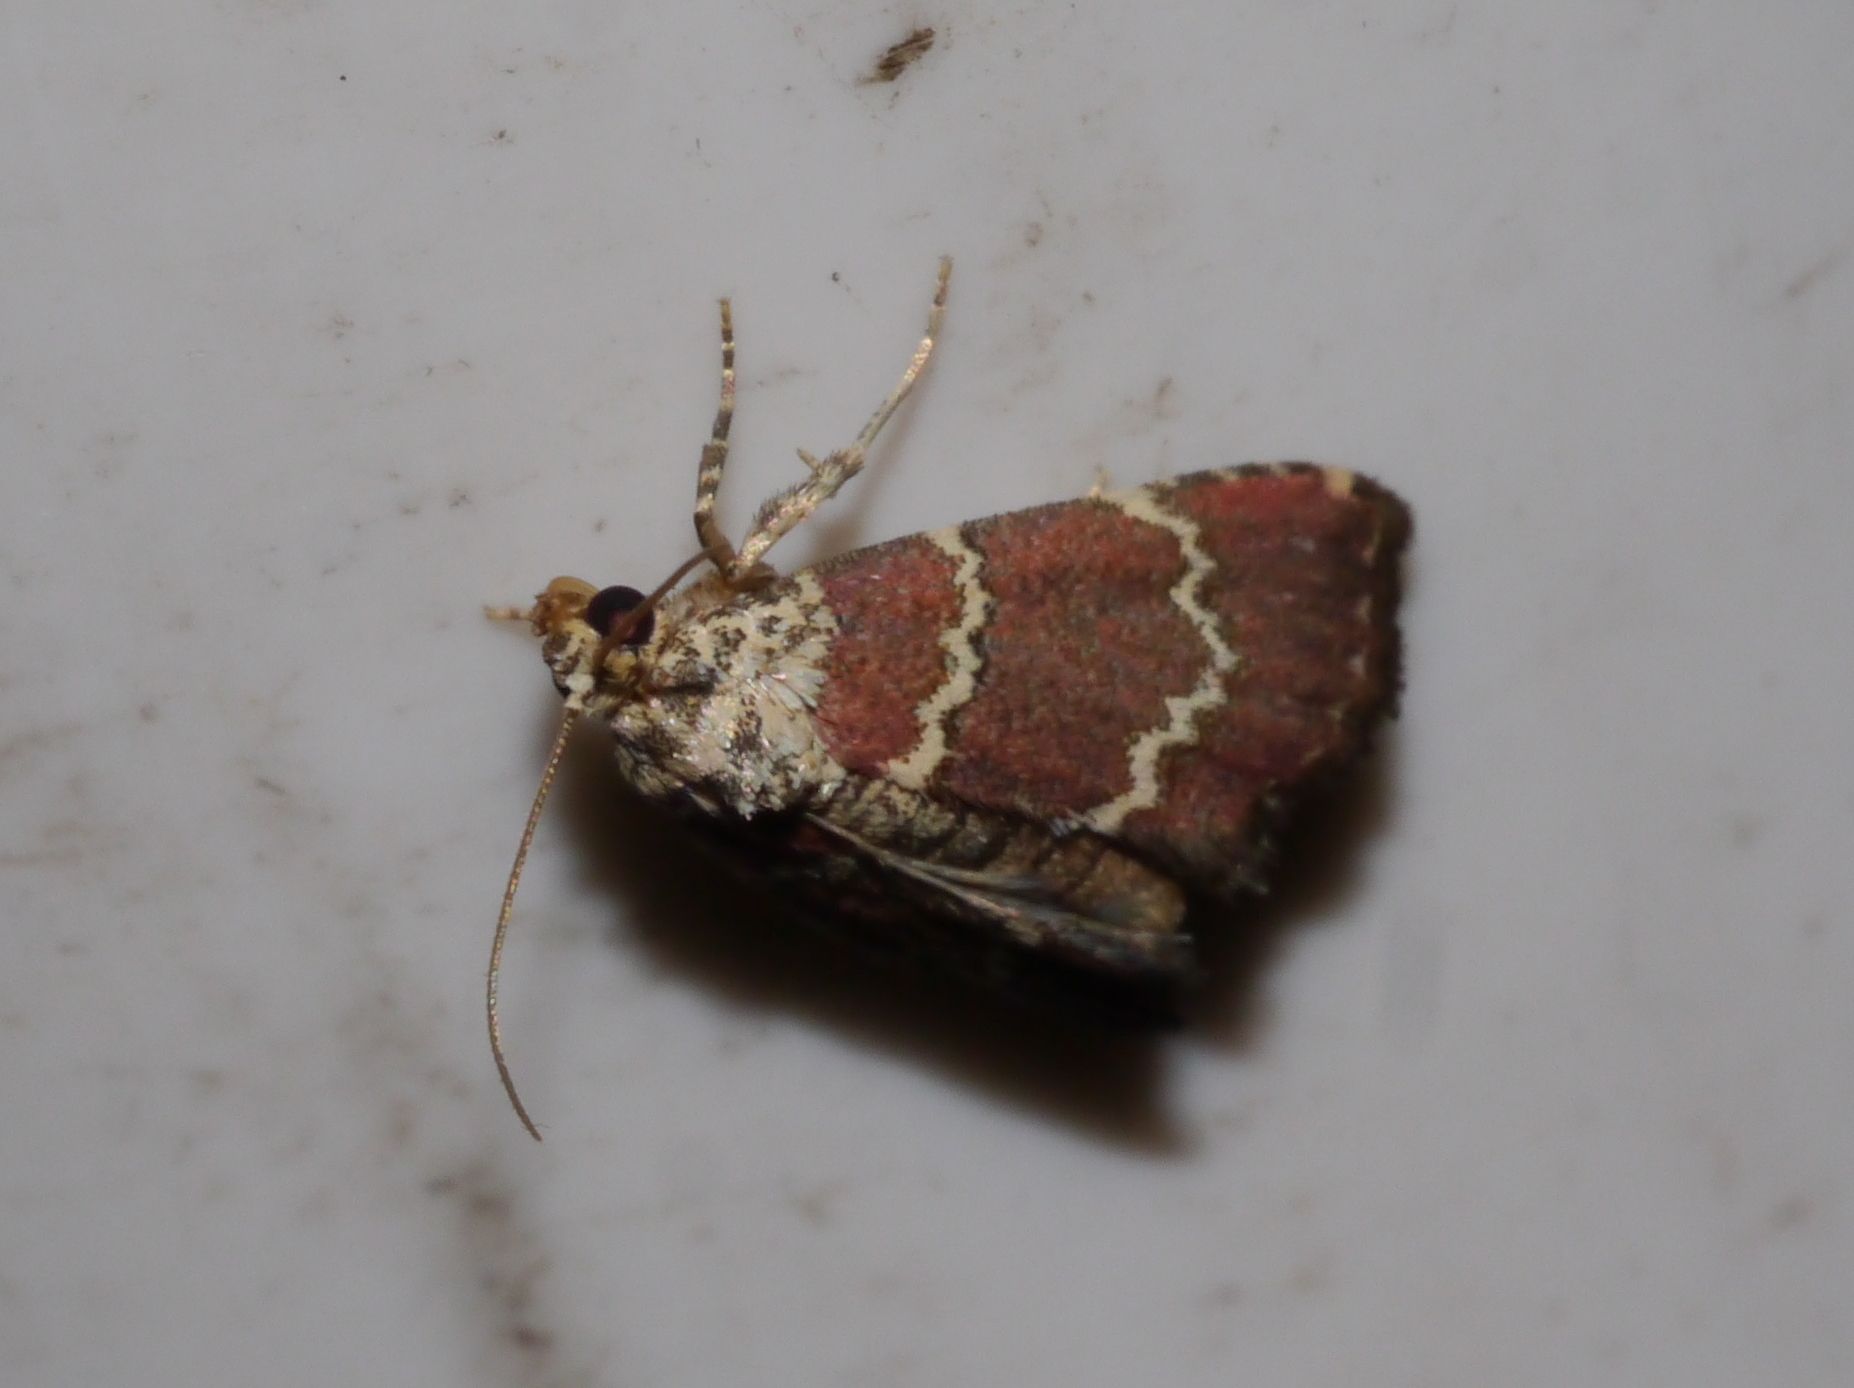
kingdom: Animalia
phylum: Arthropoda
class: Insecta
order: Lepidoptera
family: Noctuidae
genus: Phoenicophanta
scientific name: Phoenicophanta modestula
